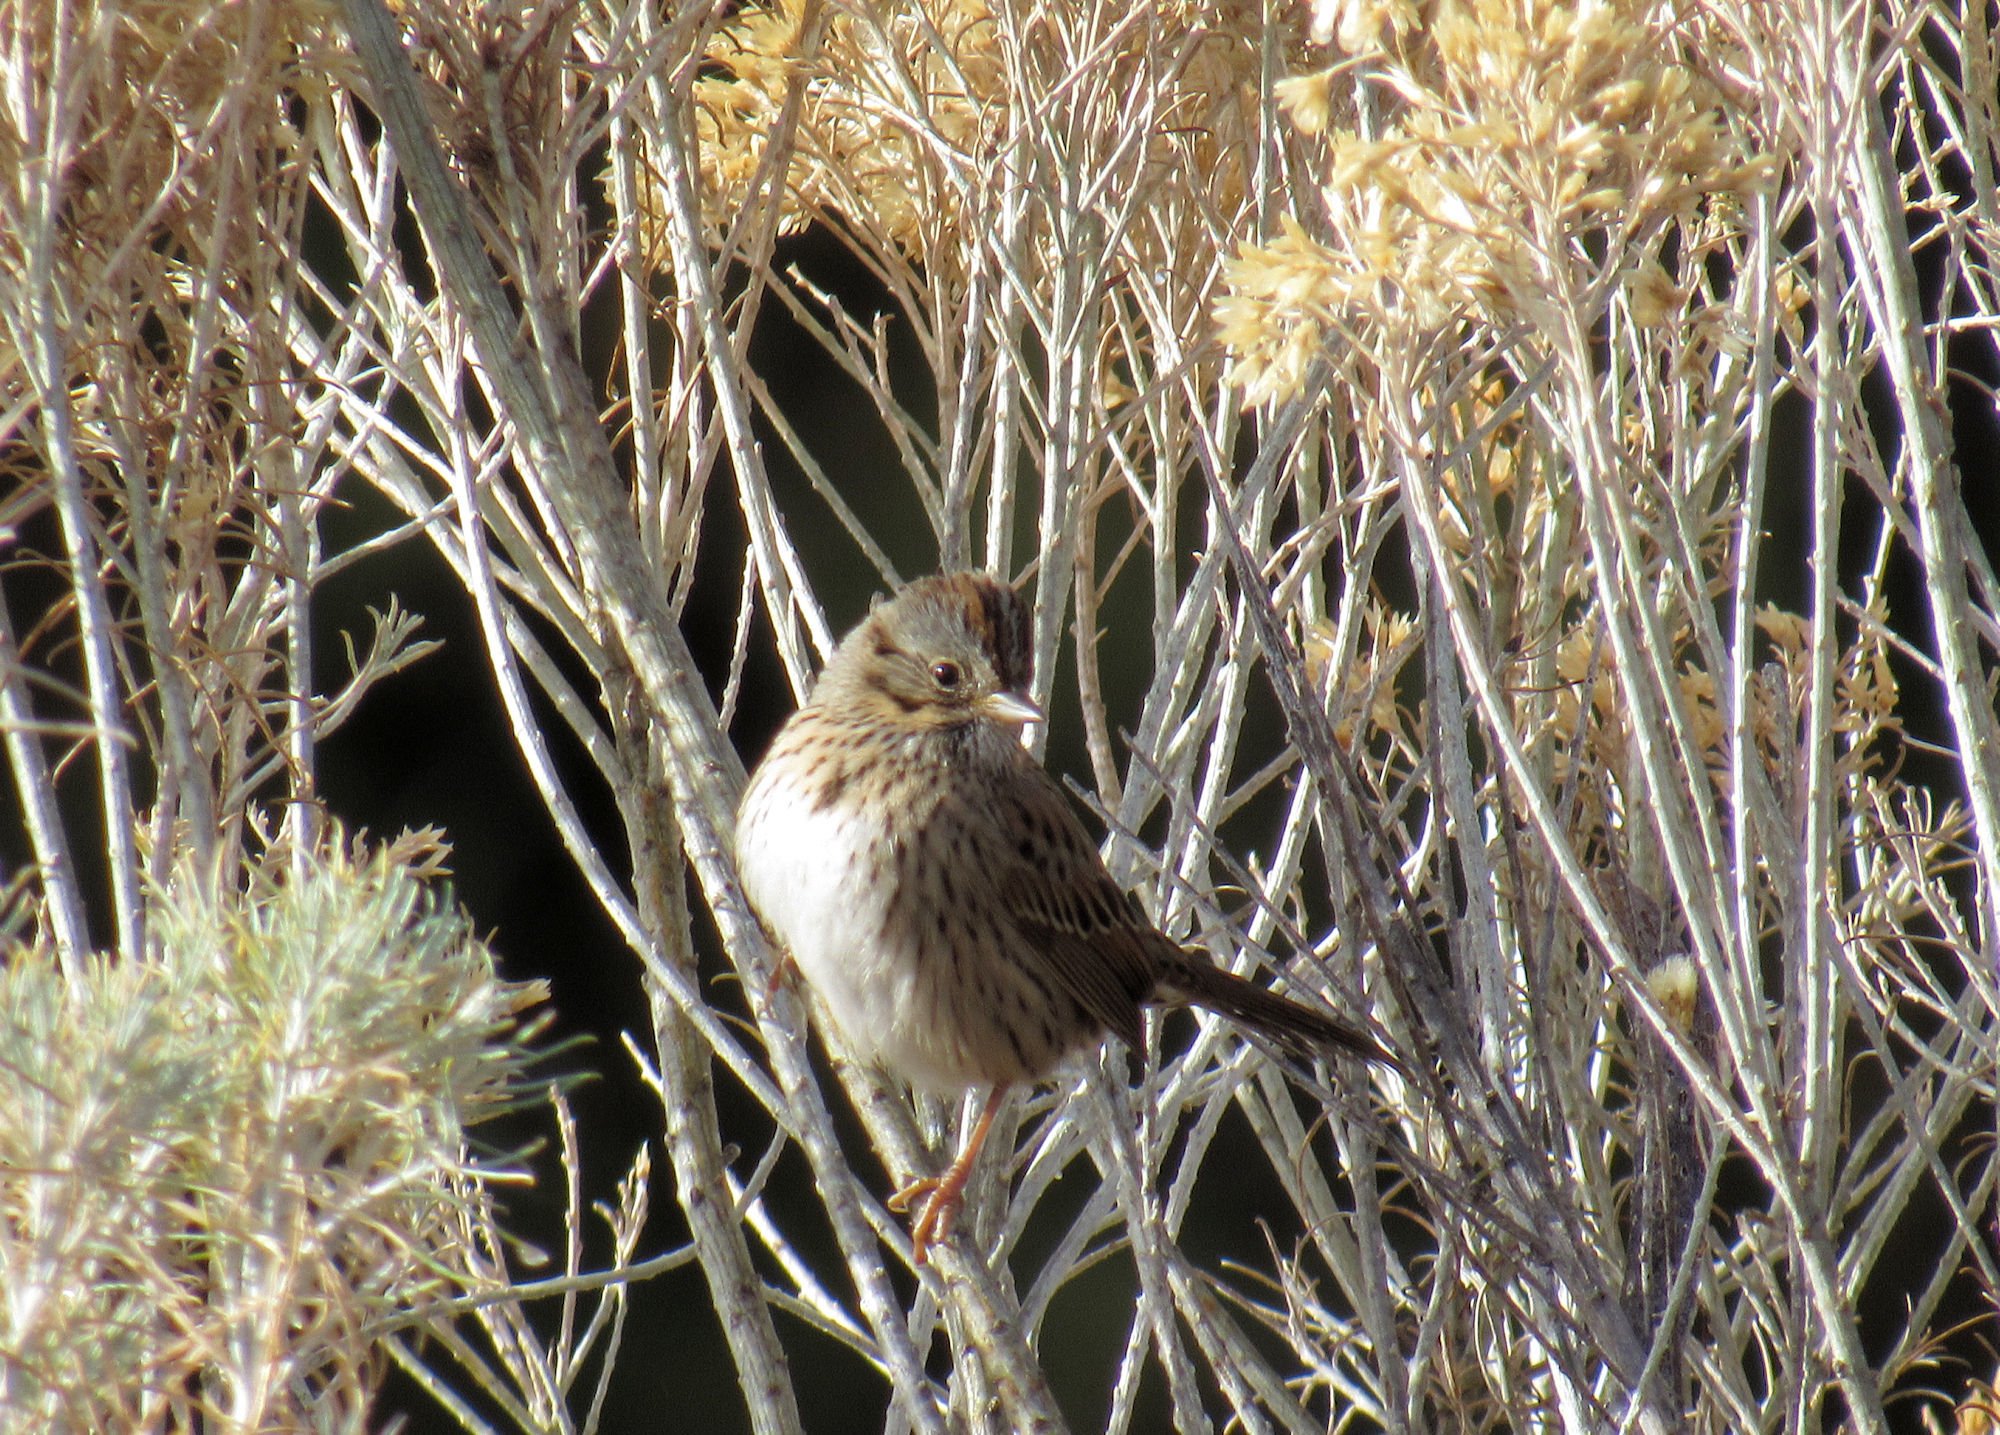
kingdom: Animalia
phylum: Chordata
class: Aves
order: Passeriformes
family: Passerellidae
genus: Melospiza
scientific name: Melospiza lincolnii
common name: Lincoln's sparrow
